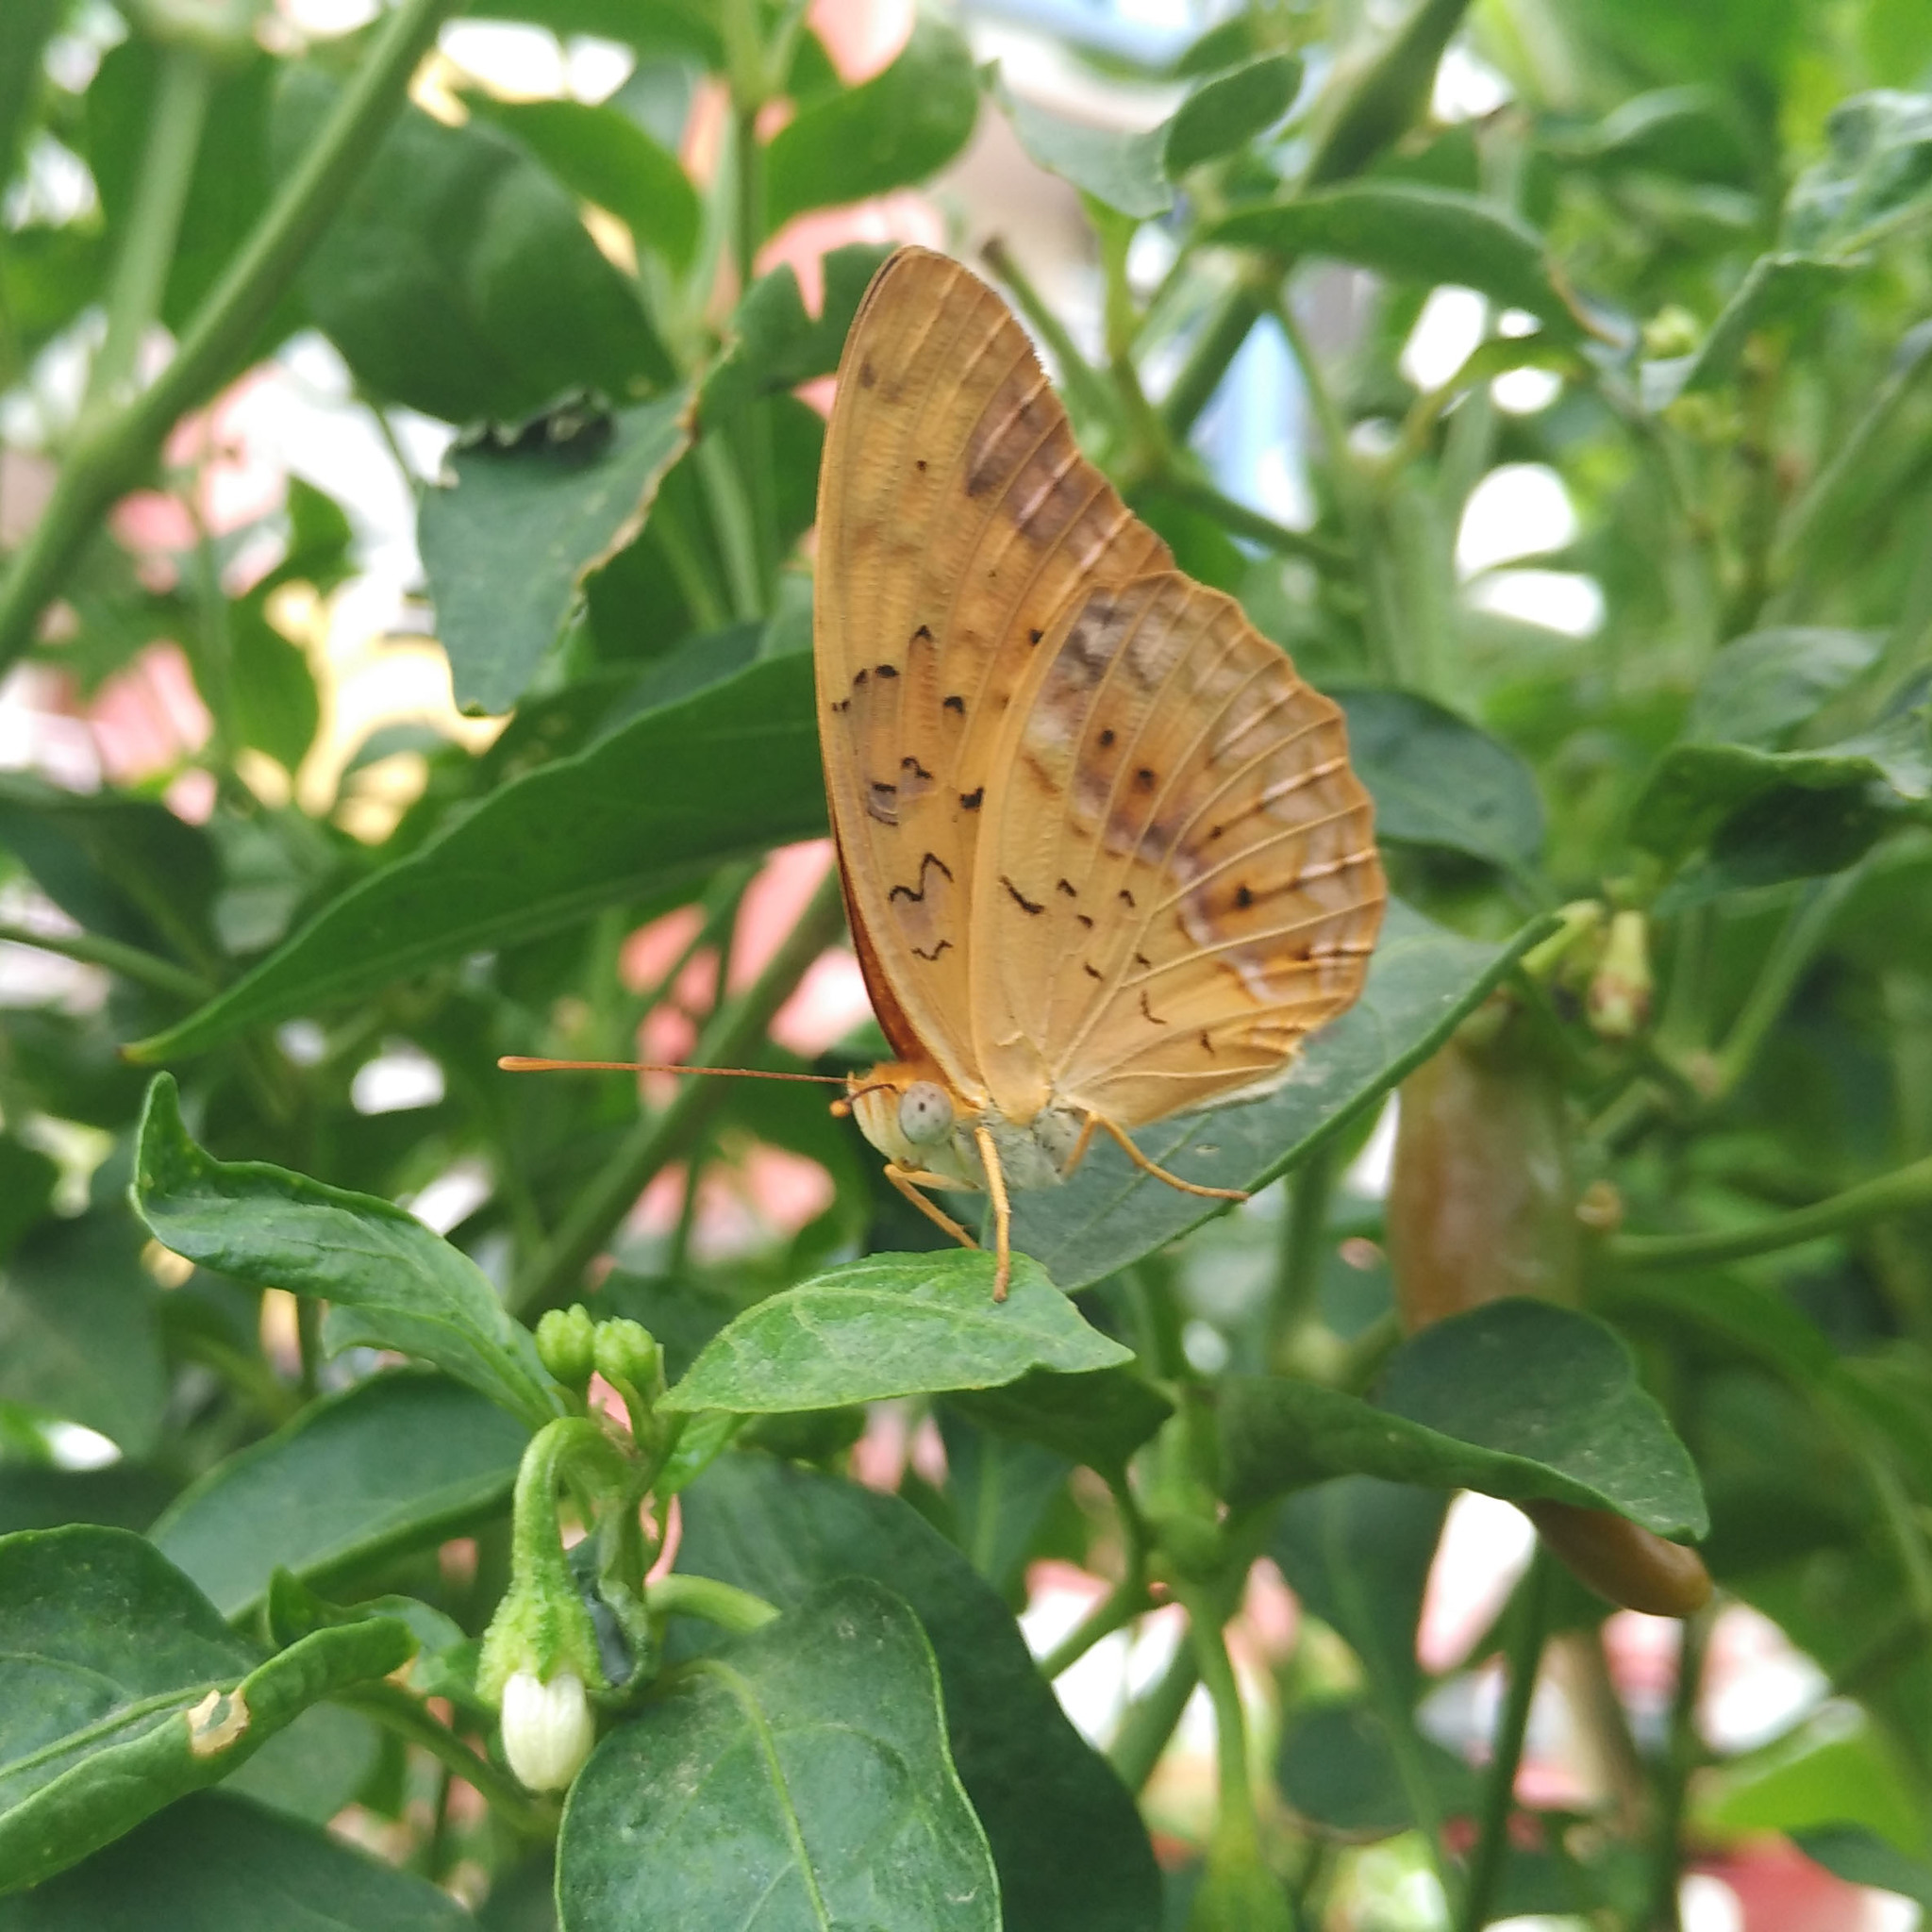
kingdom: Animalia
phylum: Arthropoda
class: Insecta
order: Lepidoptera
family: Nymphalidae
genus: Phalanta
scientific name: Phalanta phalantha
